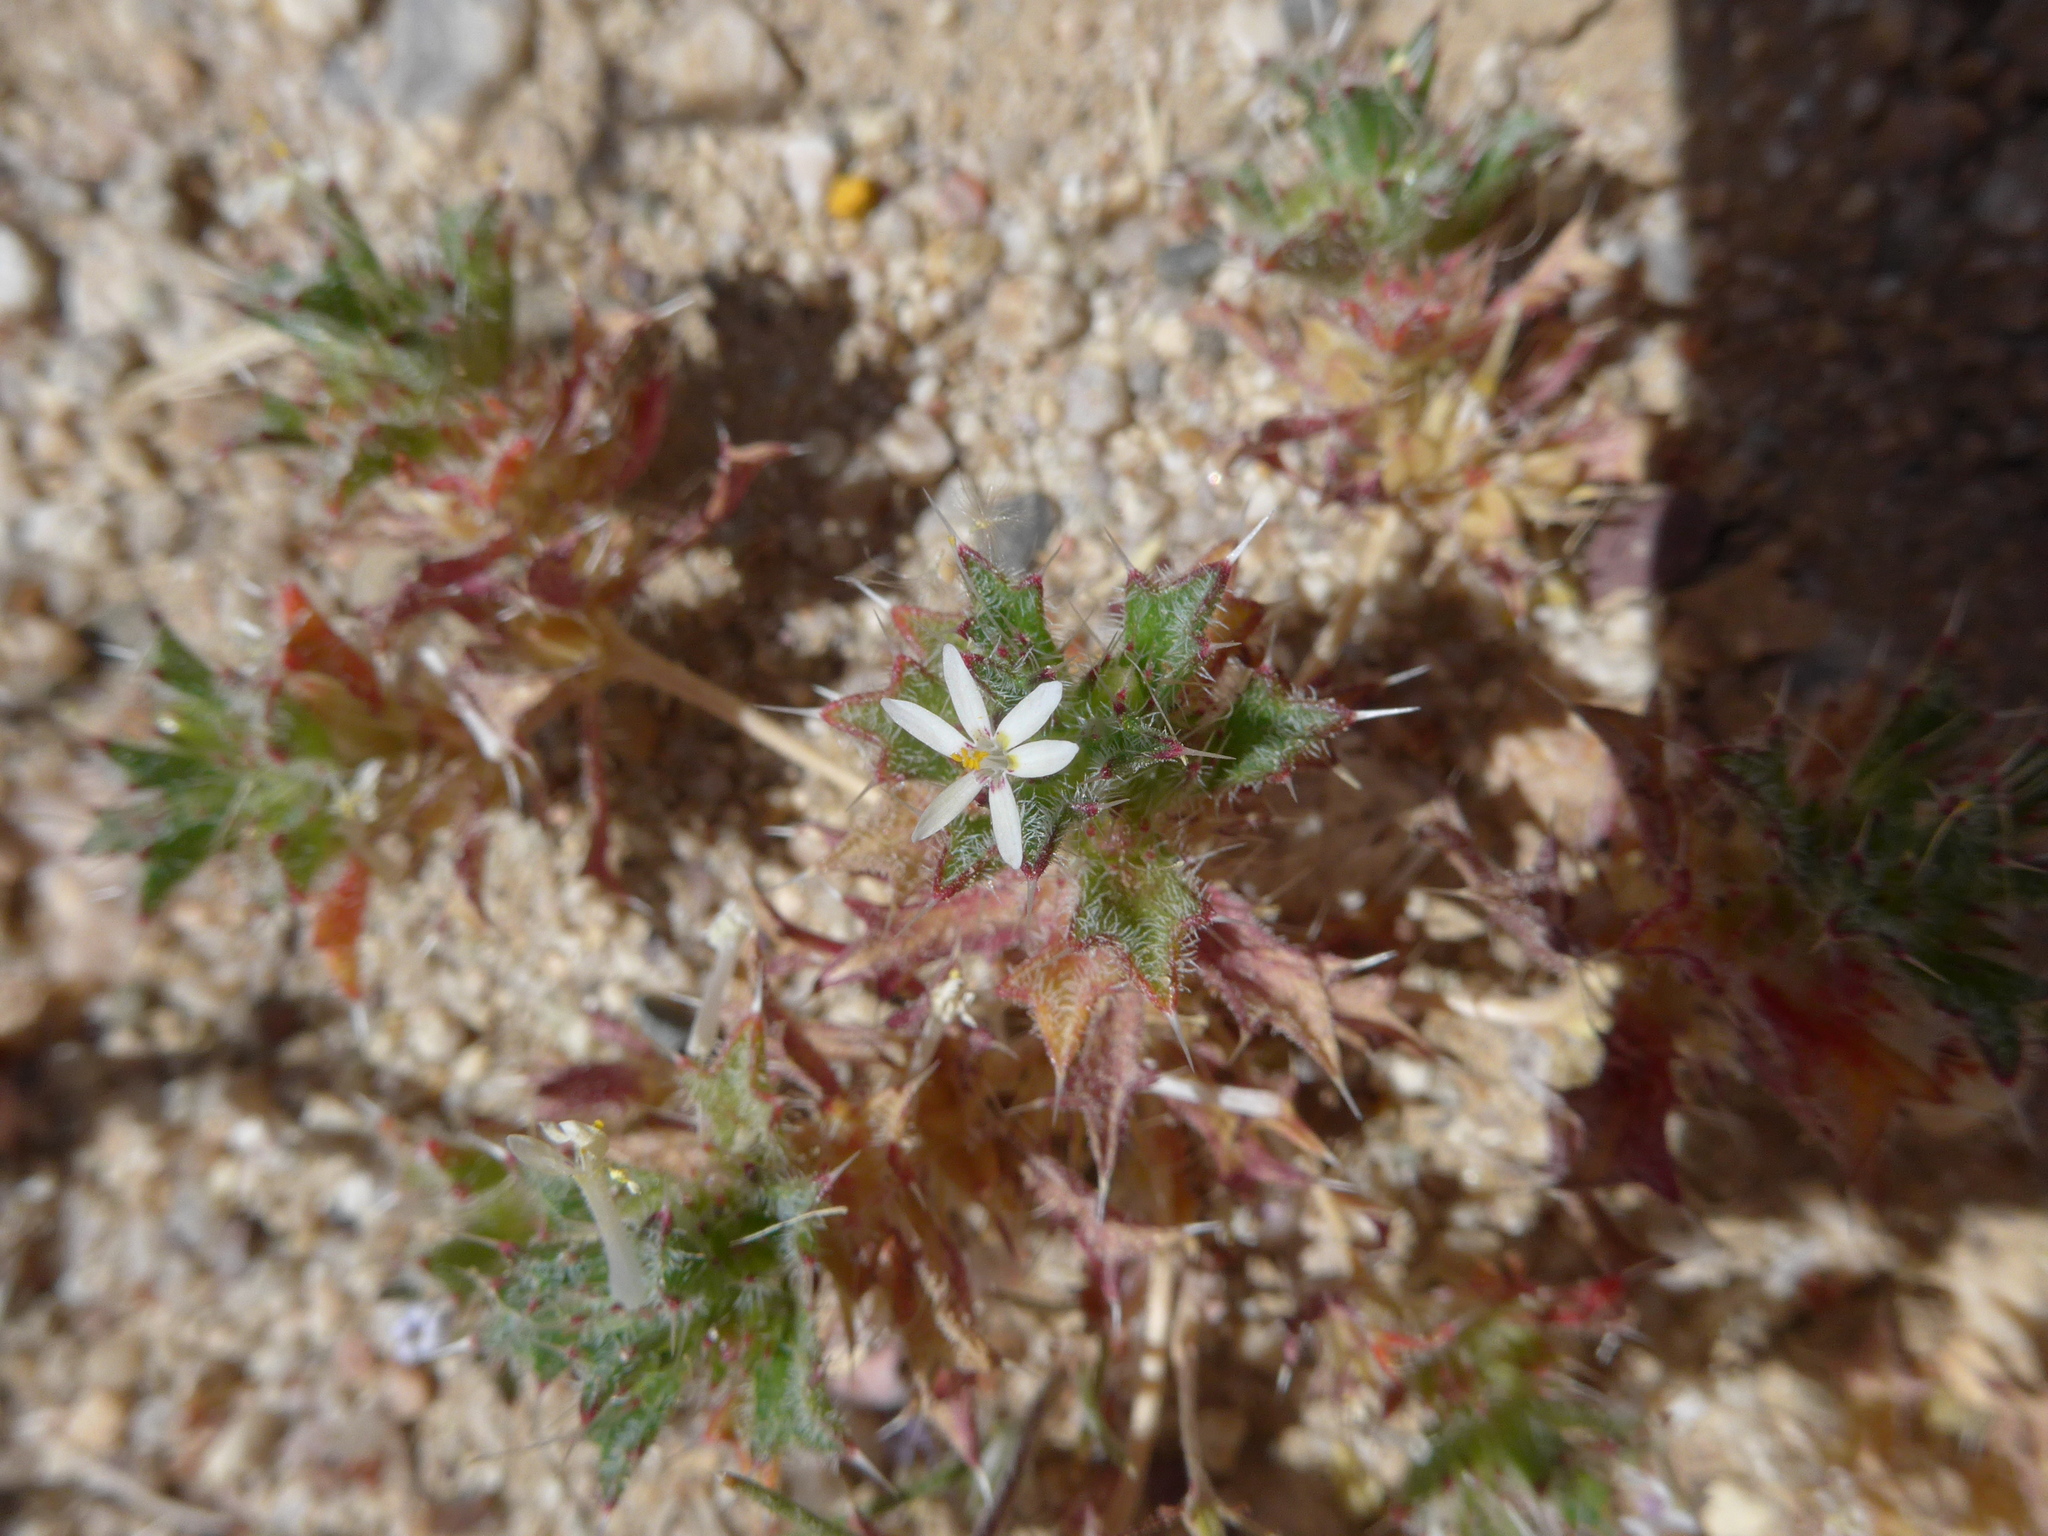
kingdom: Plantae
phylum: Tracheophyta
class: Magnoliopsida
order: Ericales
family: Polemoniaceae
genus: Loeseliastrum
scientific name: Loeseliastrum schottii
